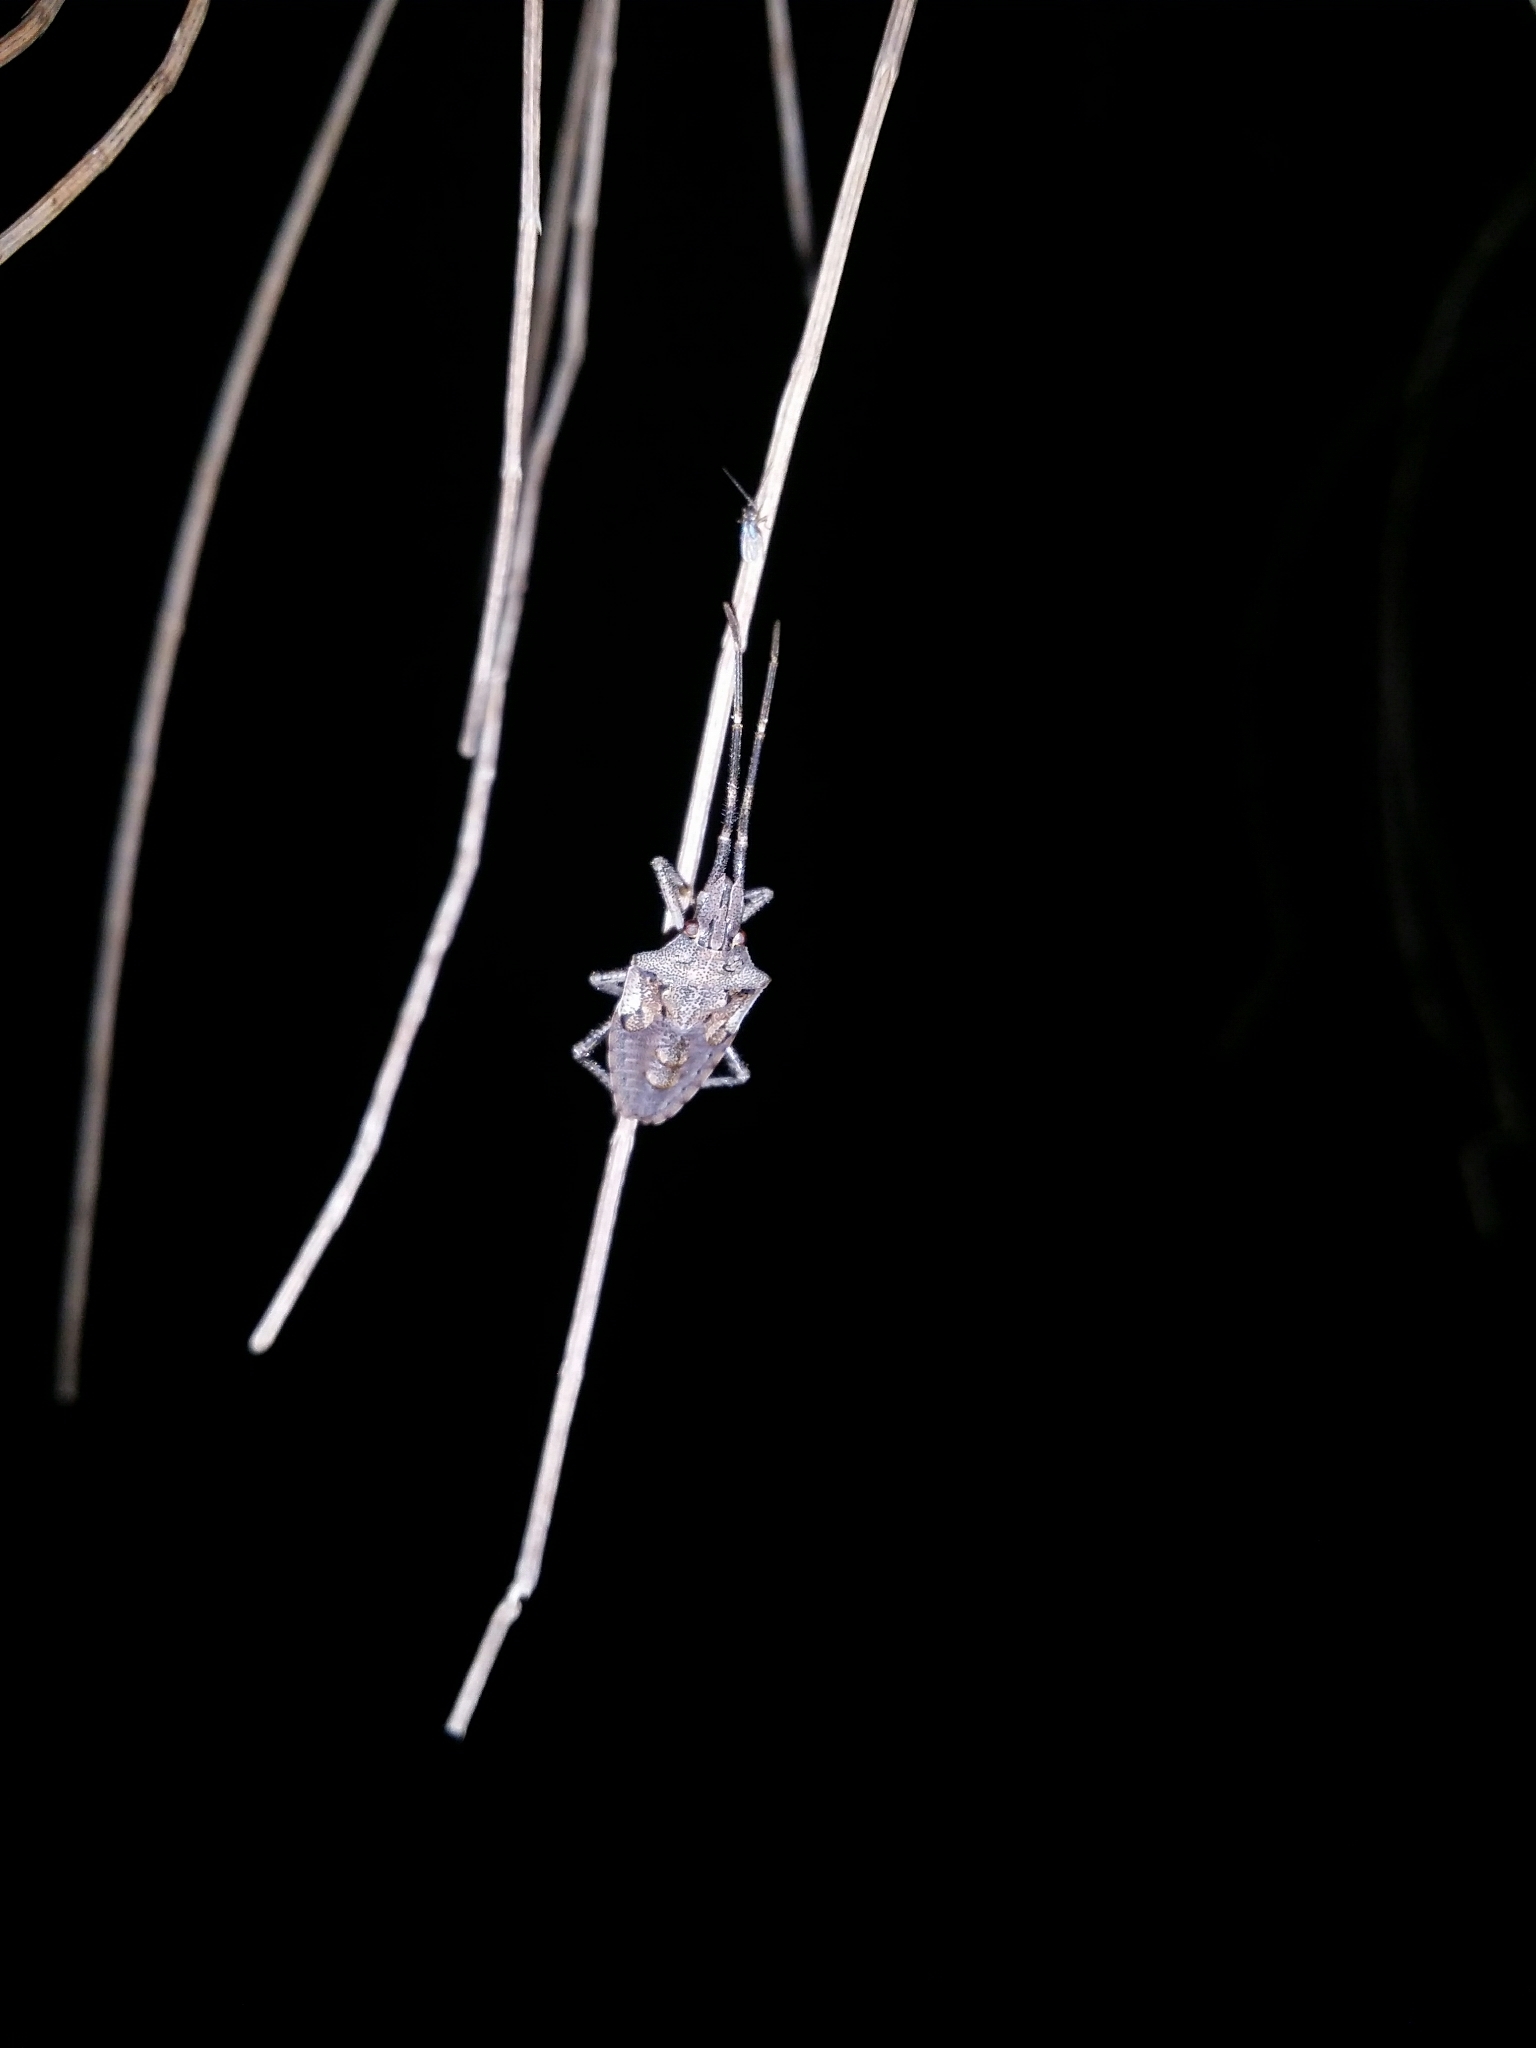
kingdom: Animalia
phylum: Arthropoda
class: Insecta
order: Hemiptera
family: Pentatomidae
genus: Alcaeus
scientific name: Alcaeus
